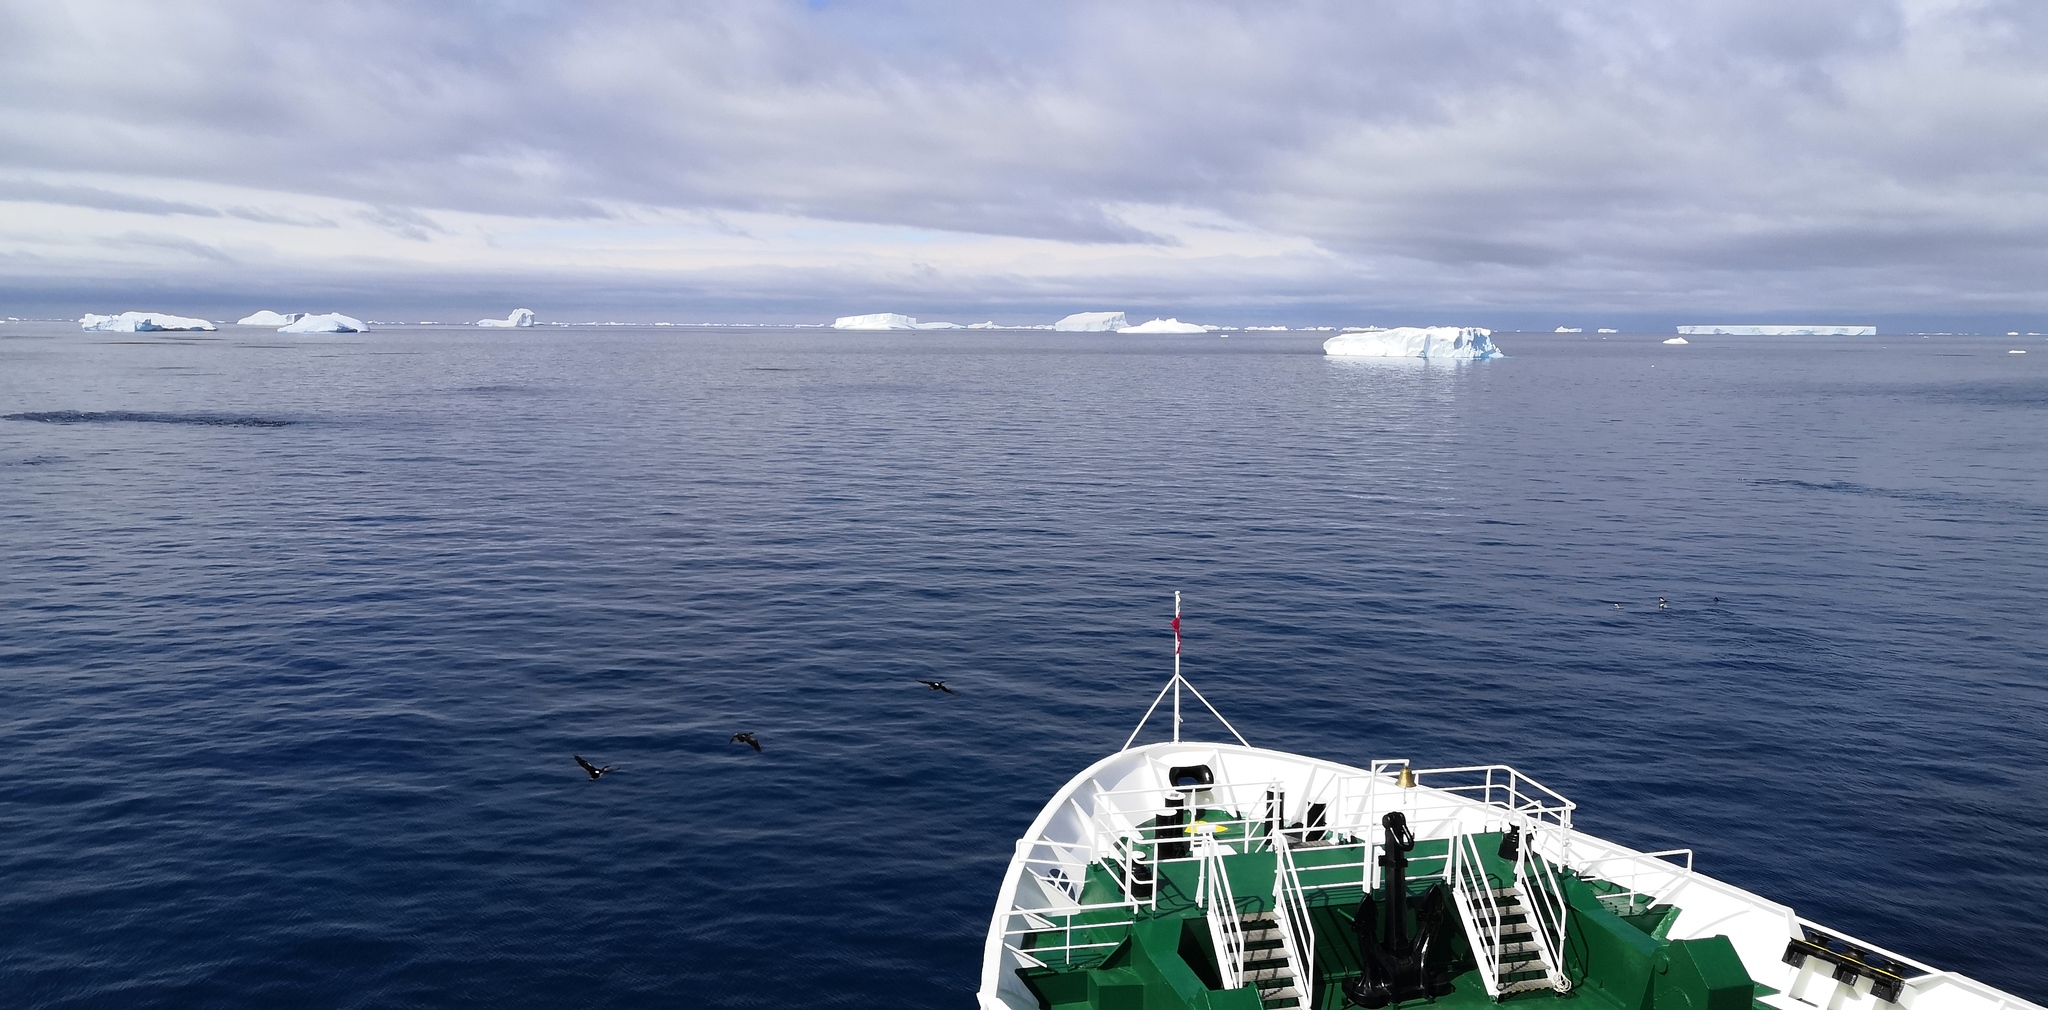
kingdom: Animalia
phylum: Chordata
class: Aves
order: Suliformes
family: Phalacrocoracidae
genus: Leucocarbo
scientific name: Leucocarbo atriceps
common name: Imperial shag
